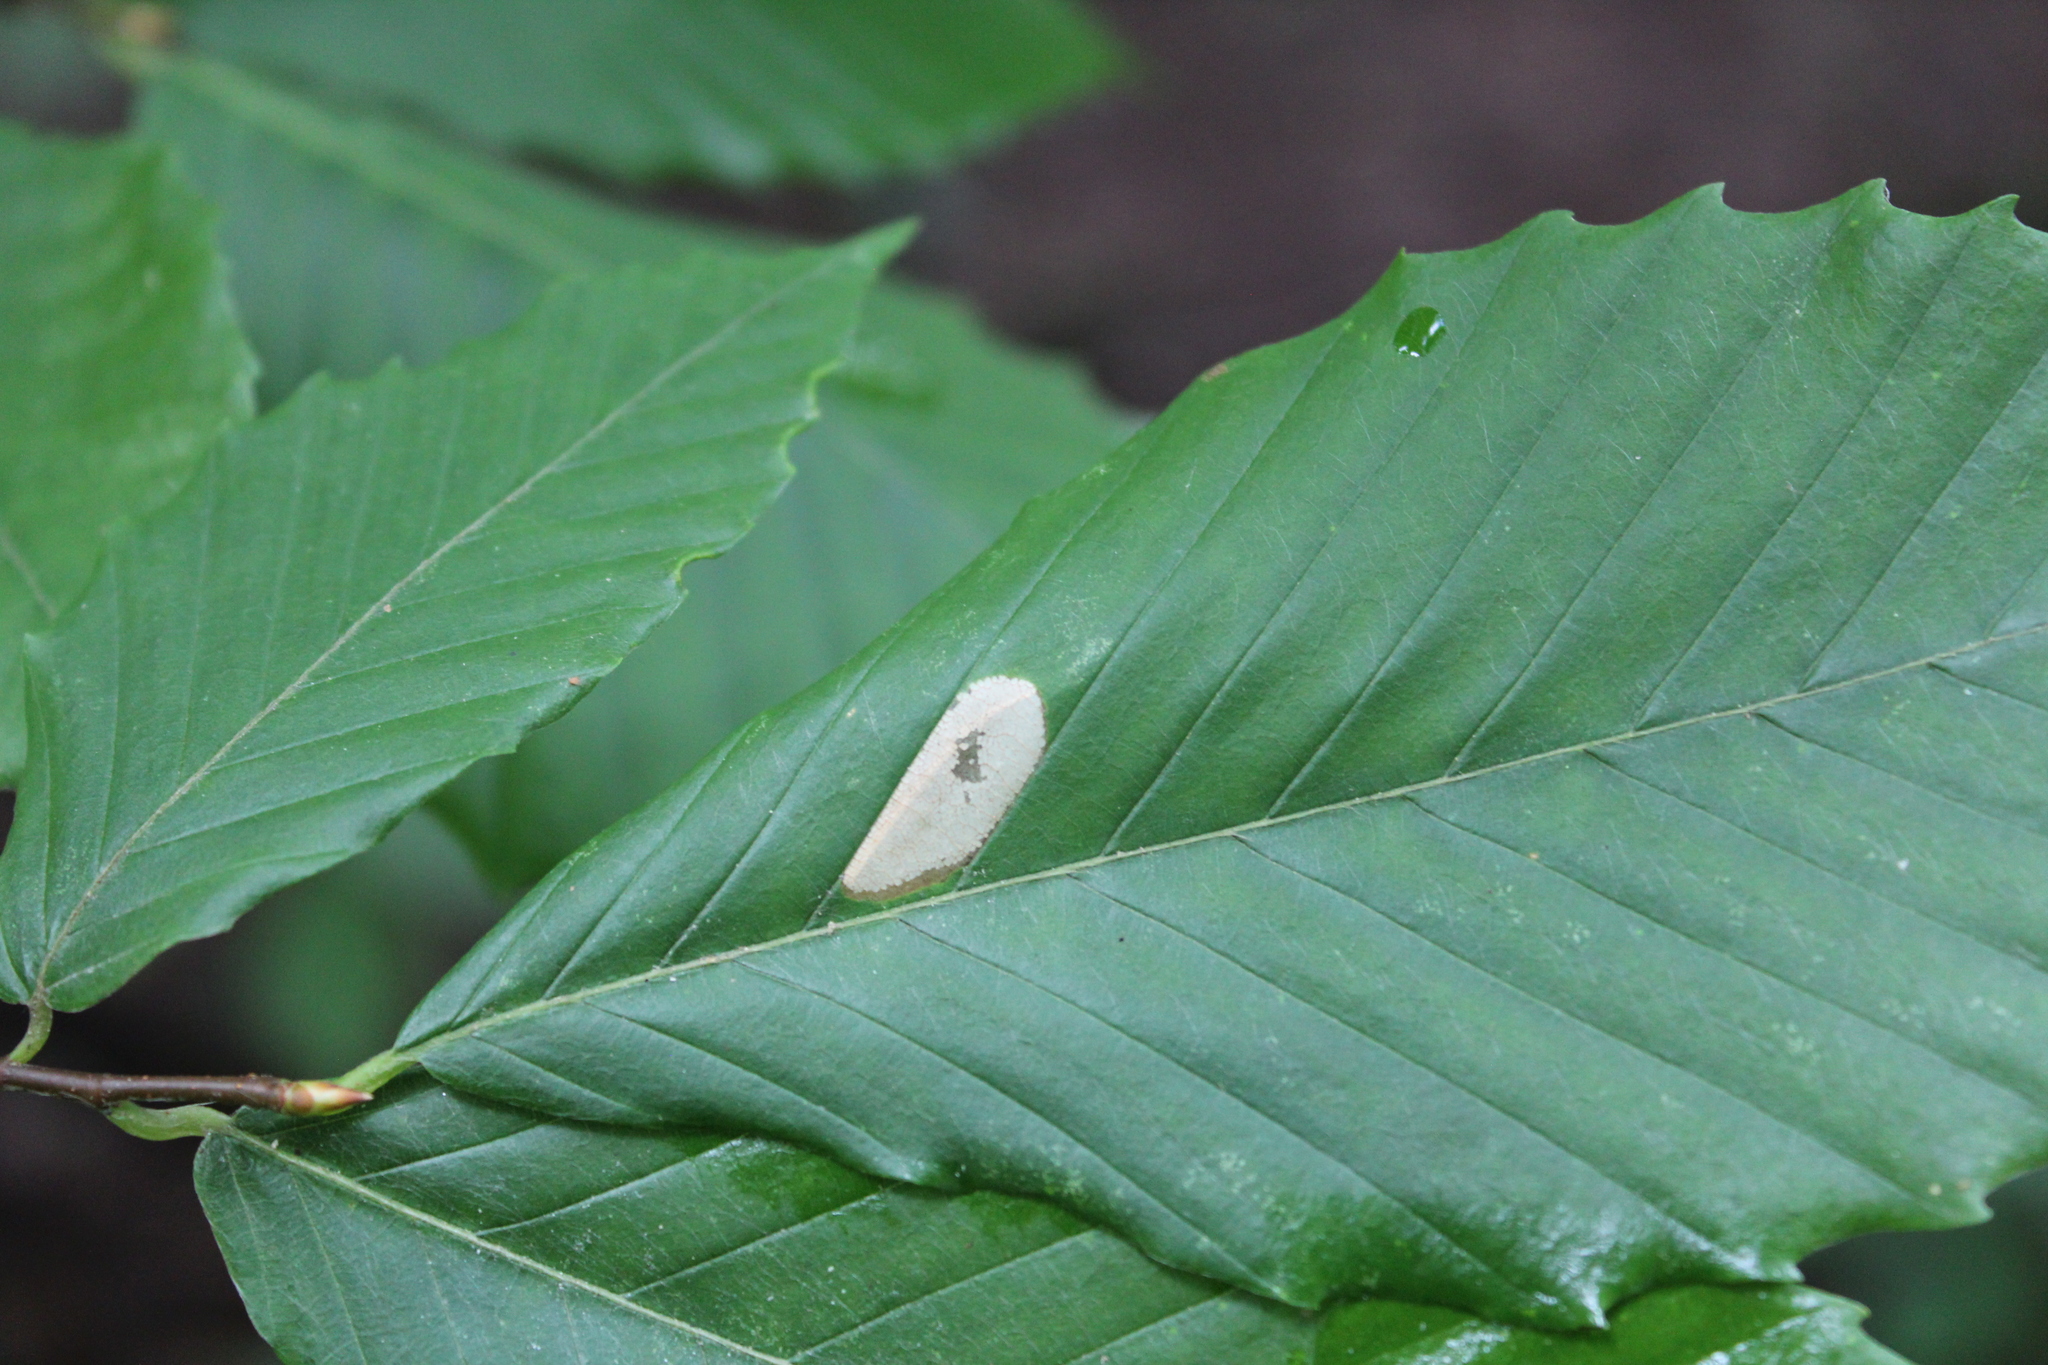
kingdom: Animalia
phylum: Arthropoda
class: Insecta
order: Lepidoptera
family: Gracillariidae
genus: Phyllonorycter
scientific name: Phyllonorycter maestingella
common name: Beech midget
